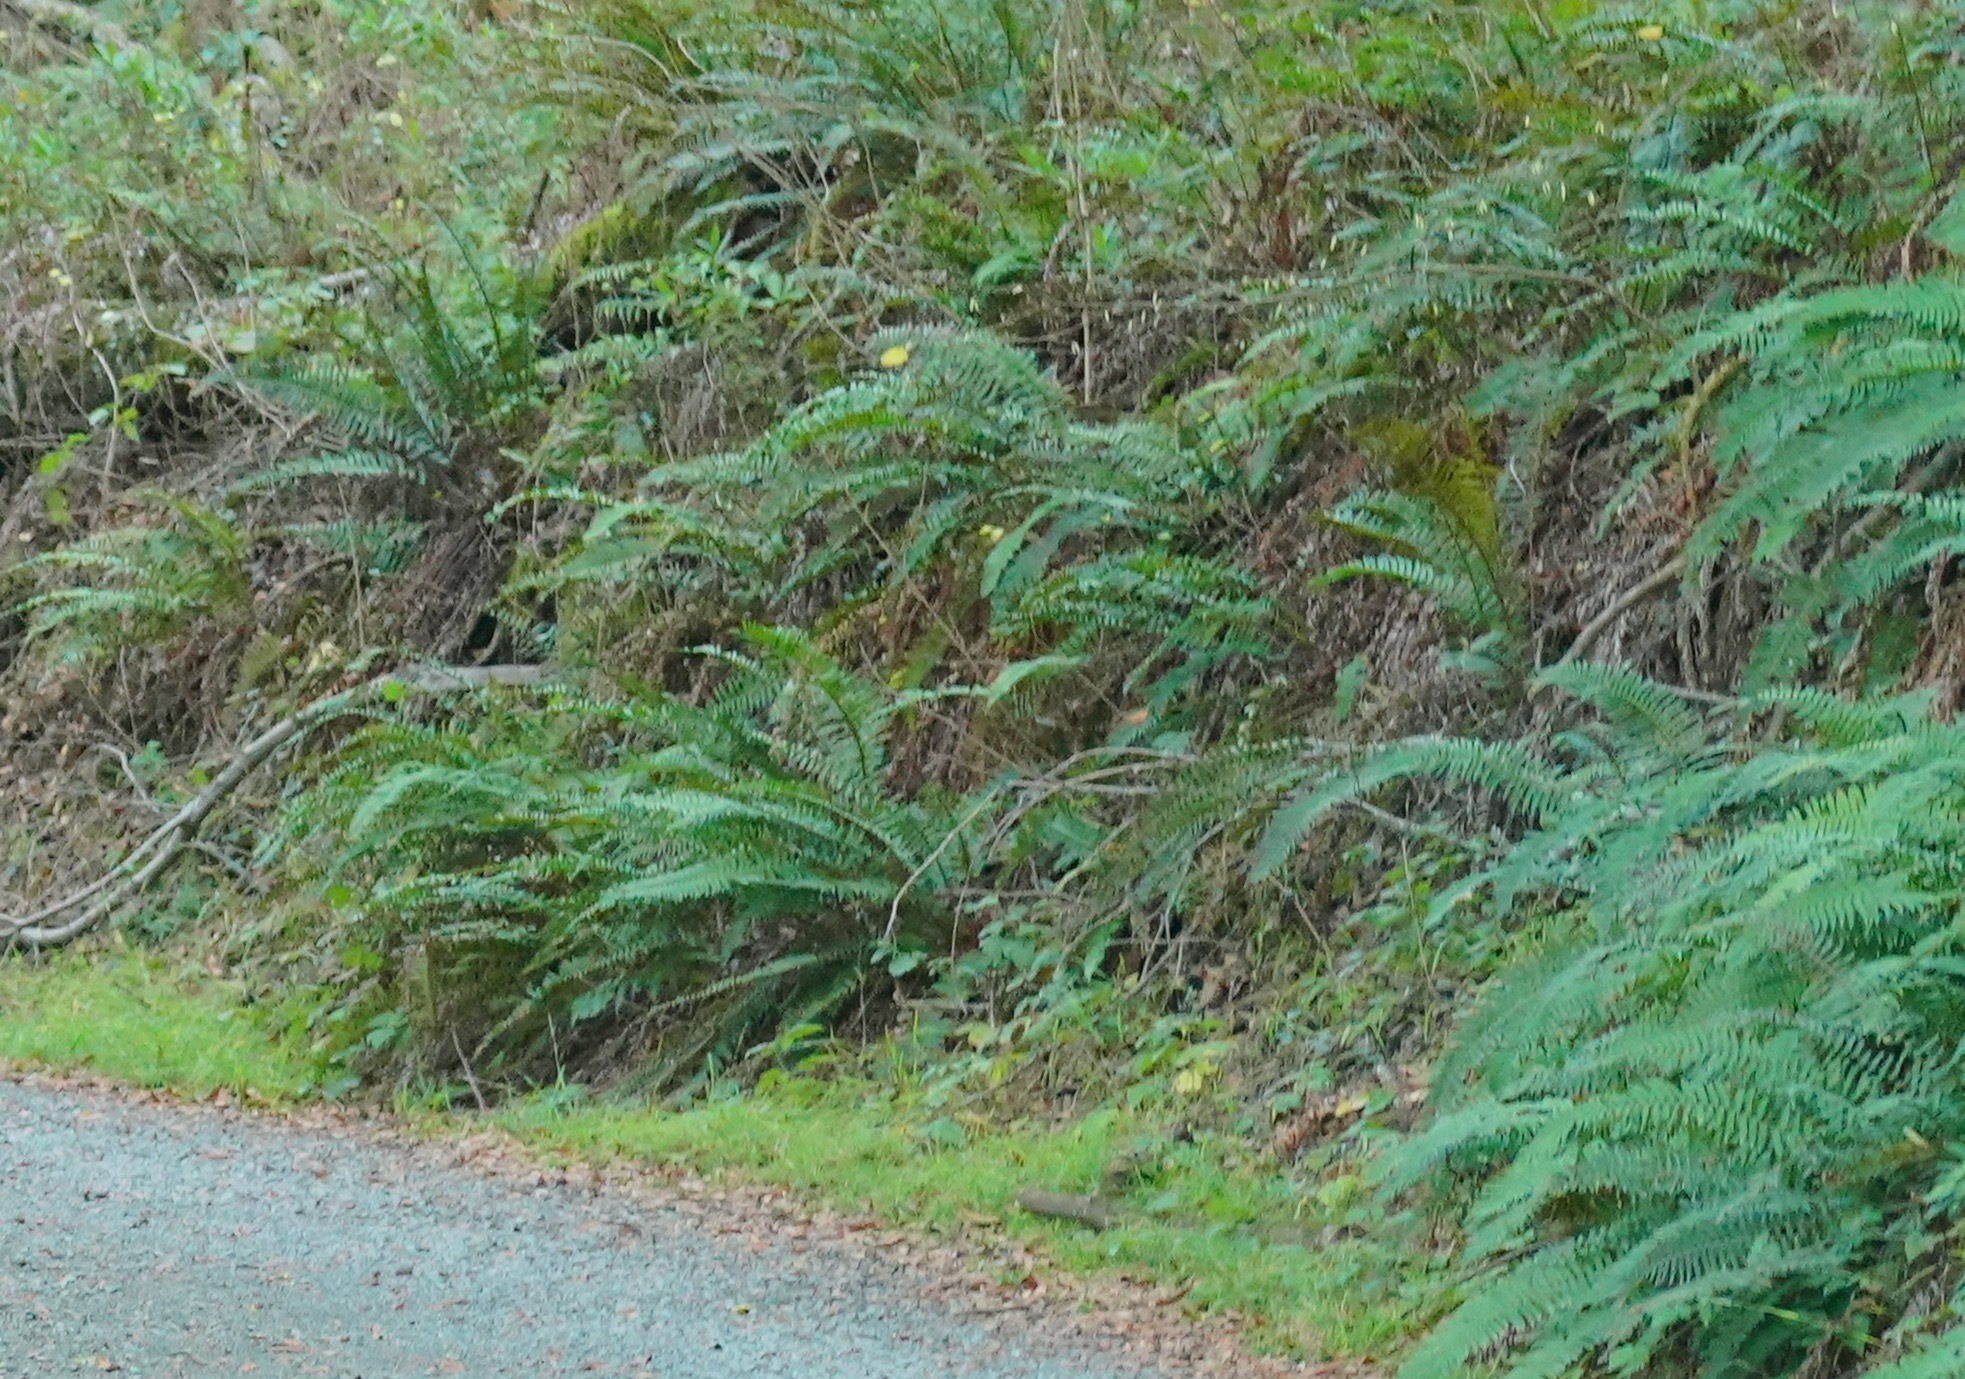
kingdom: Plantae
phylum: Tracheophyta
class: Polypodiopsida
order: Polypodiales
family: Dryopteridaceae
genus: Polystichum
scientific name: Polystichum munitum
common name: Western sword-fern
